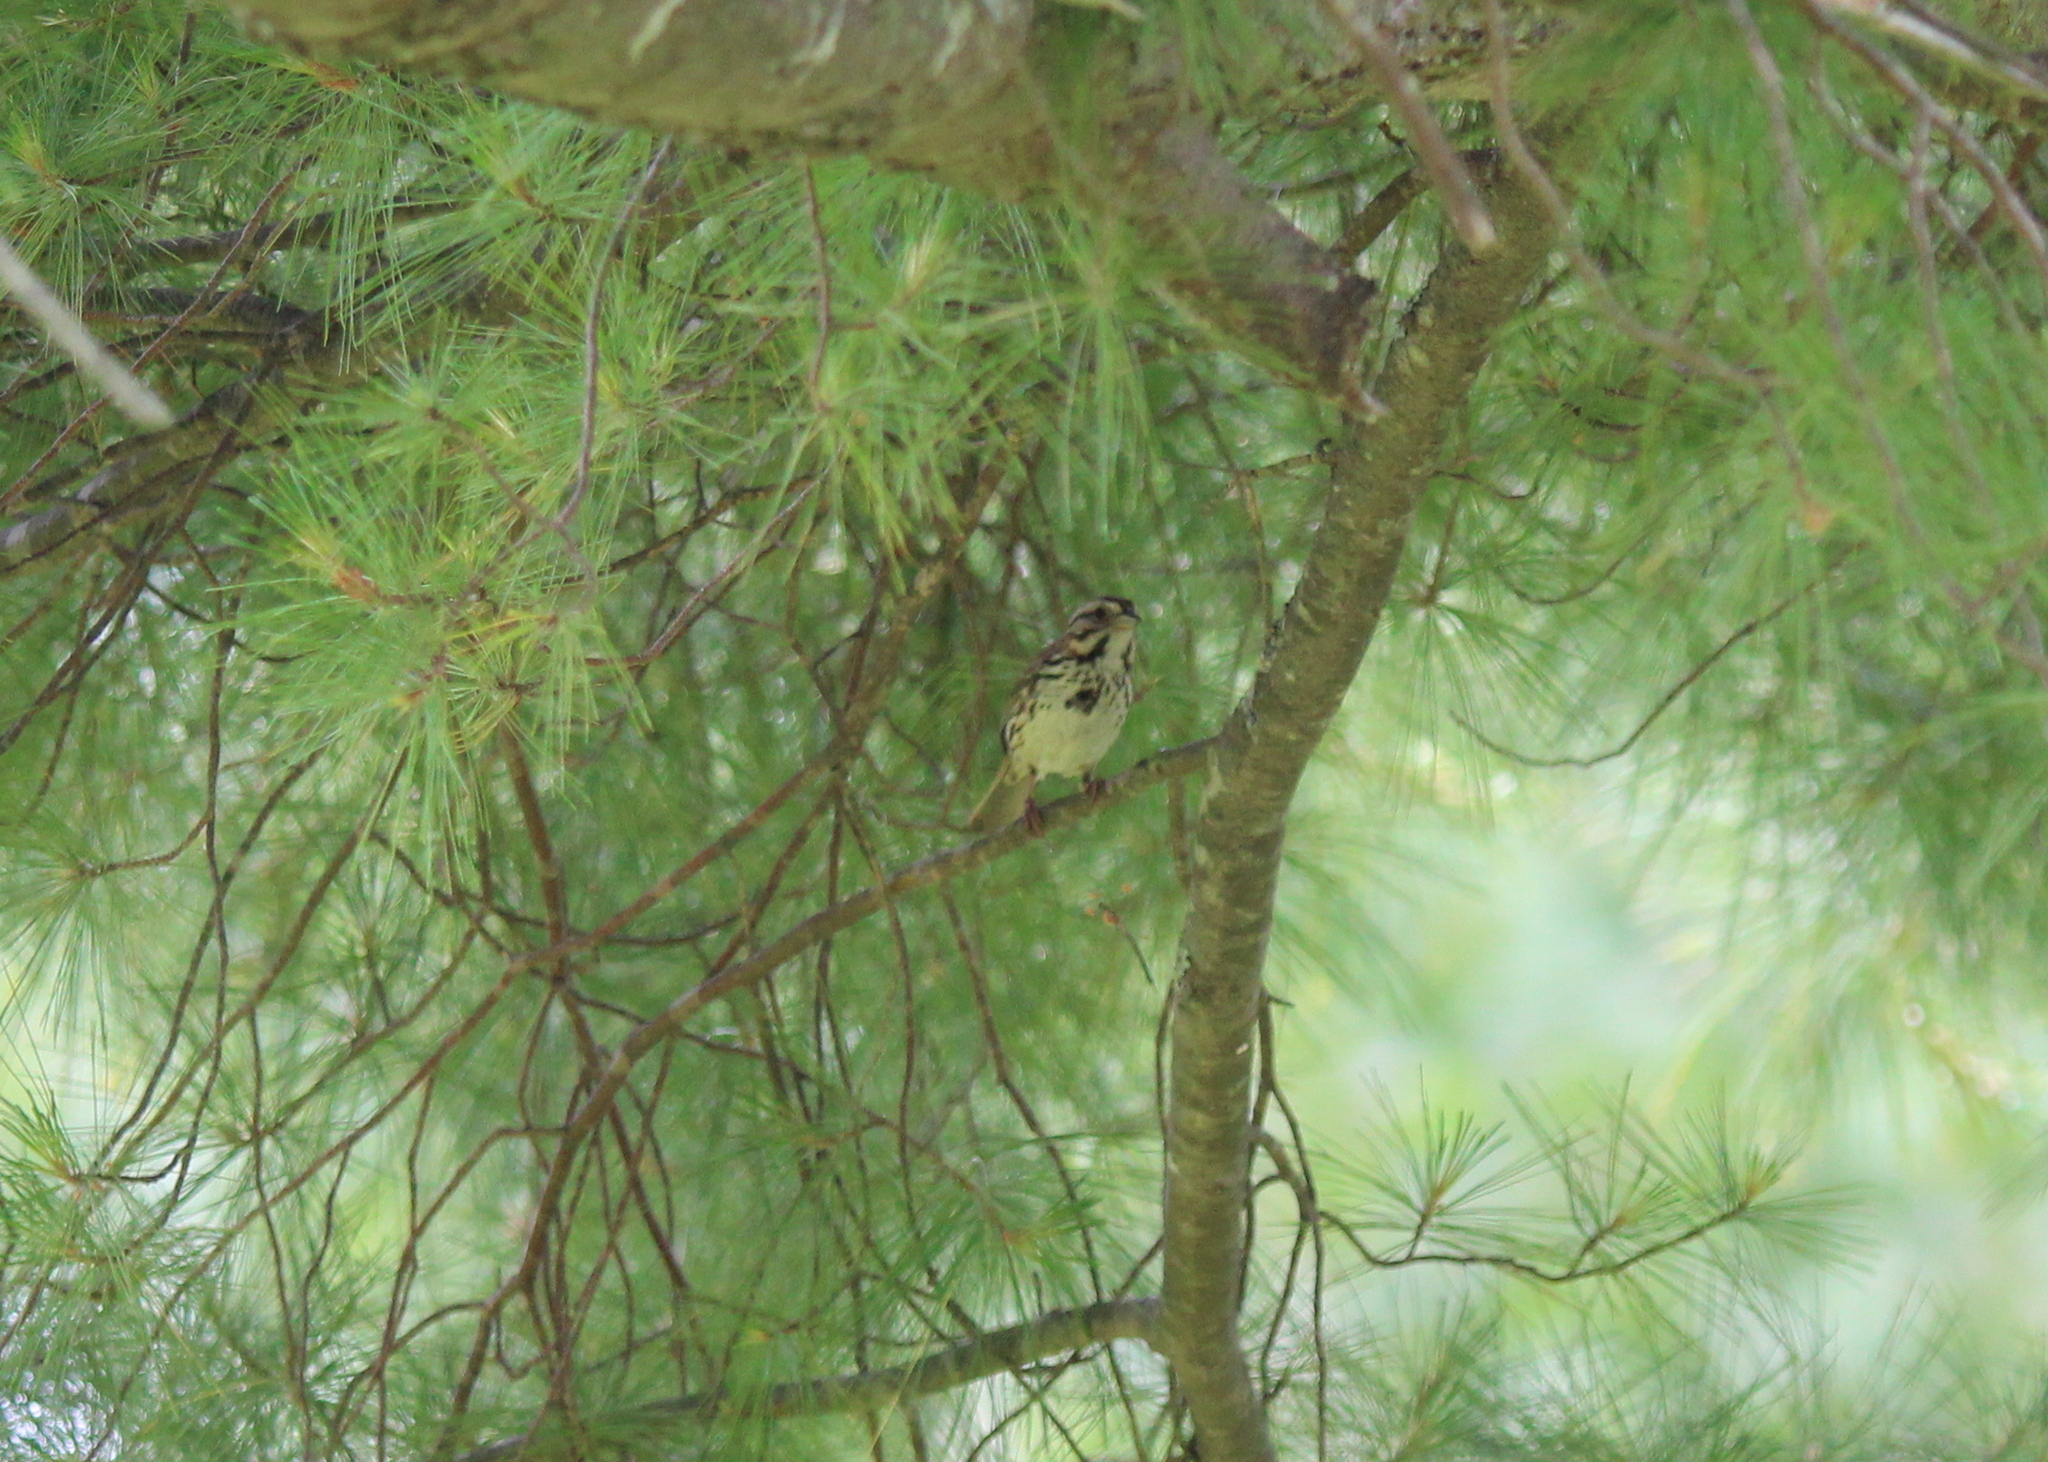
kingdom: Animalia
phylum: Chordata
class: Aves
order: Passeriformes
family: Passerellidae
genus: Melospiza
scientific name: Melospiza melodia
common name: Song sparrow
